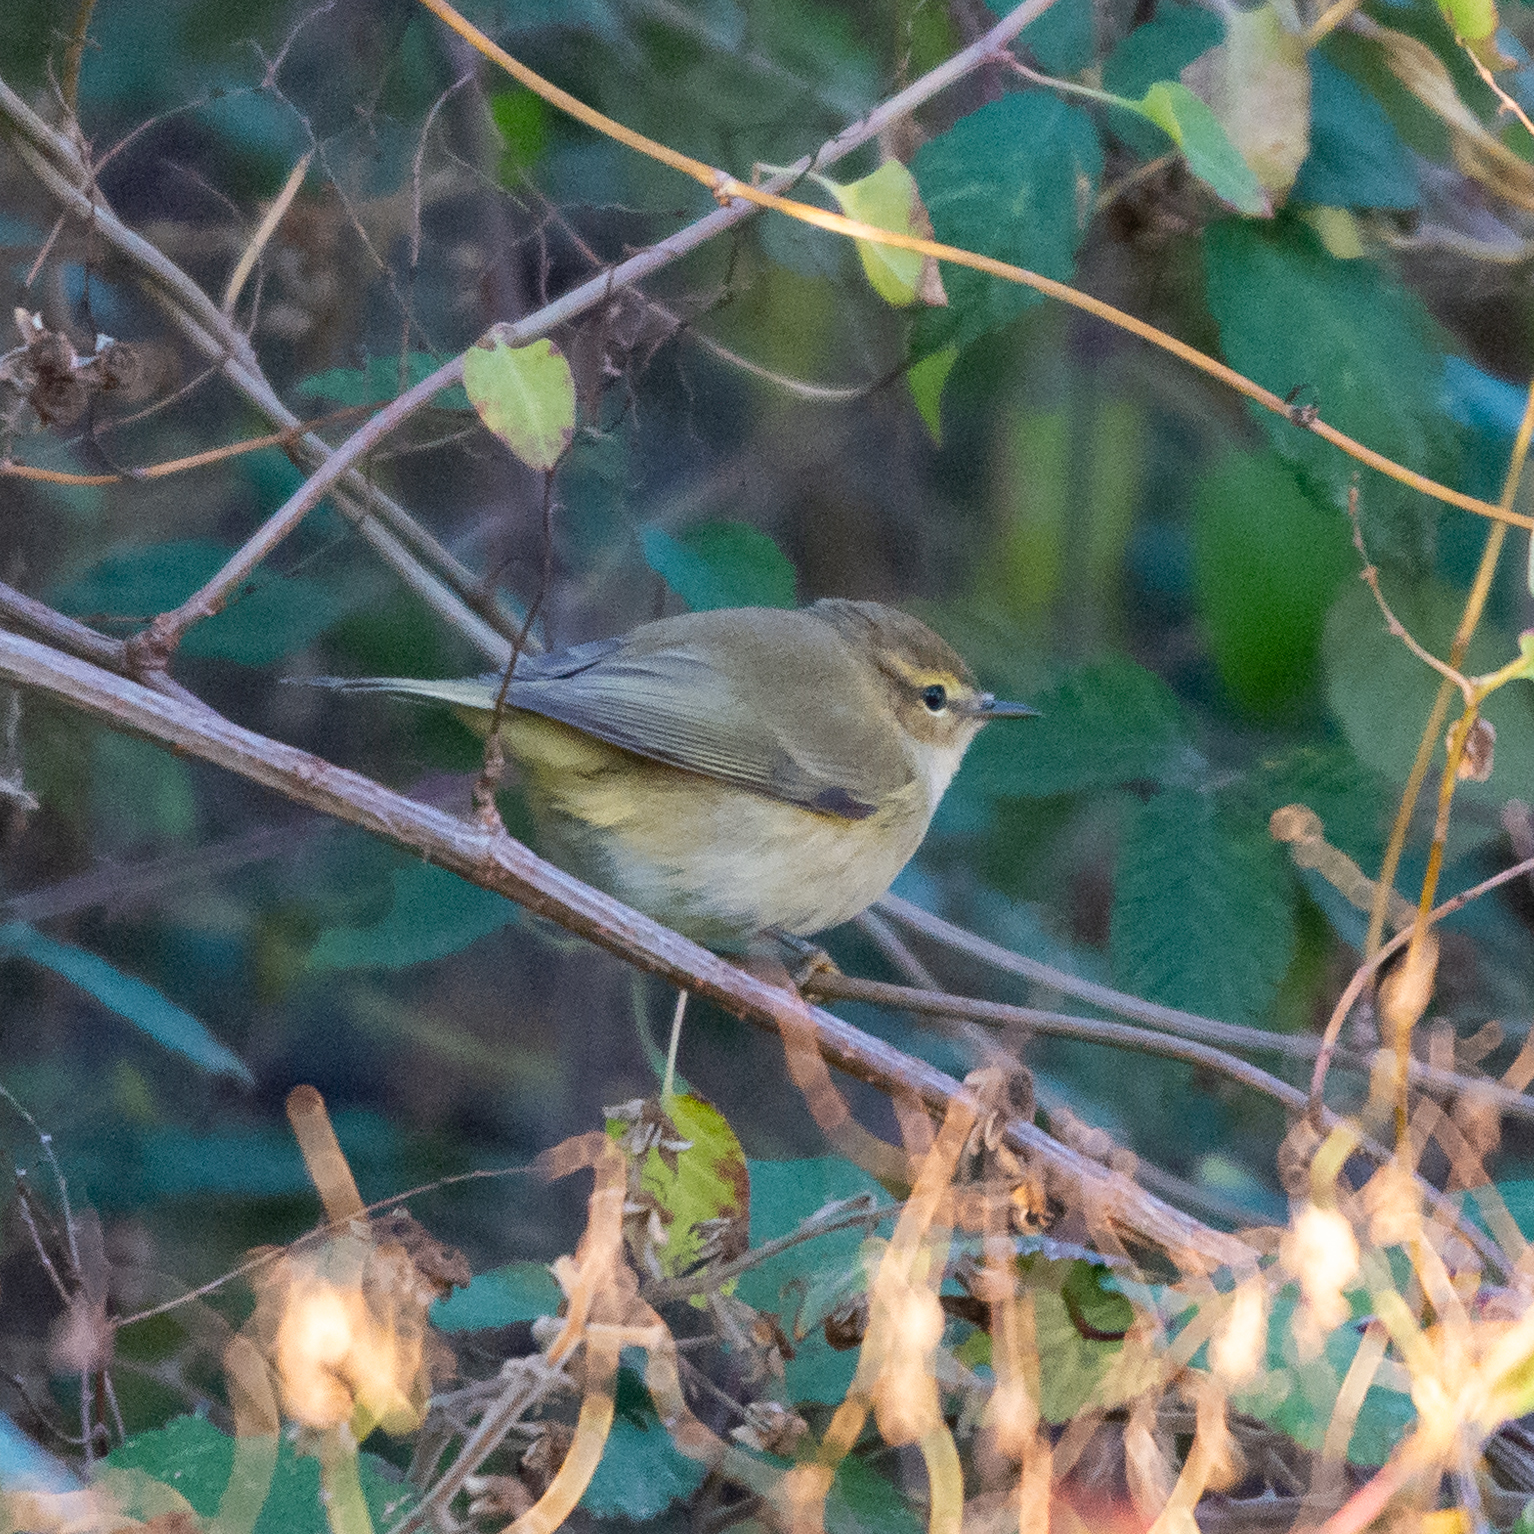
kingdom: Animalia
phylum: Chordata
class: Aves
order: Passeriformes
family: Phylloscopidae
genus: Phylloscopus
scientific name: Phylloscopus collybita
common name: Common chiffchaff
